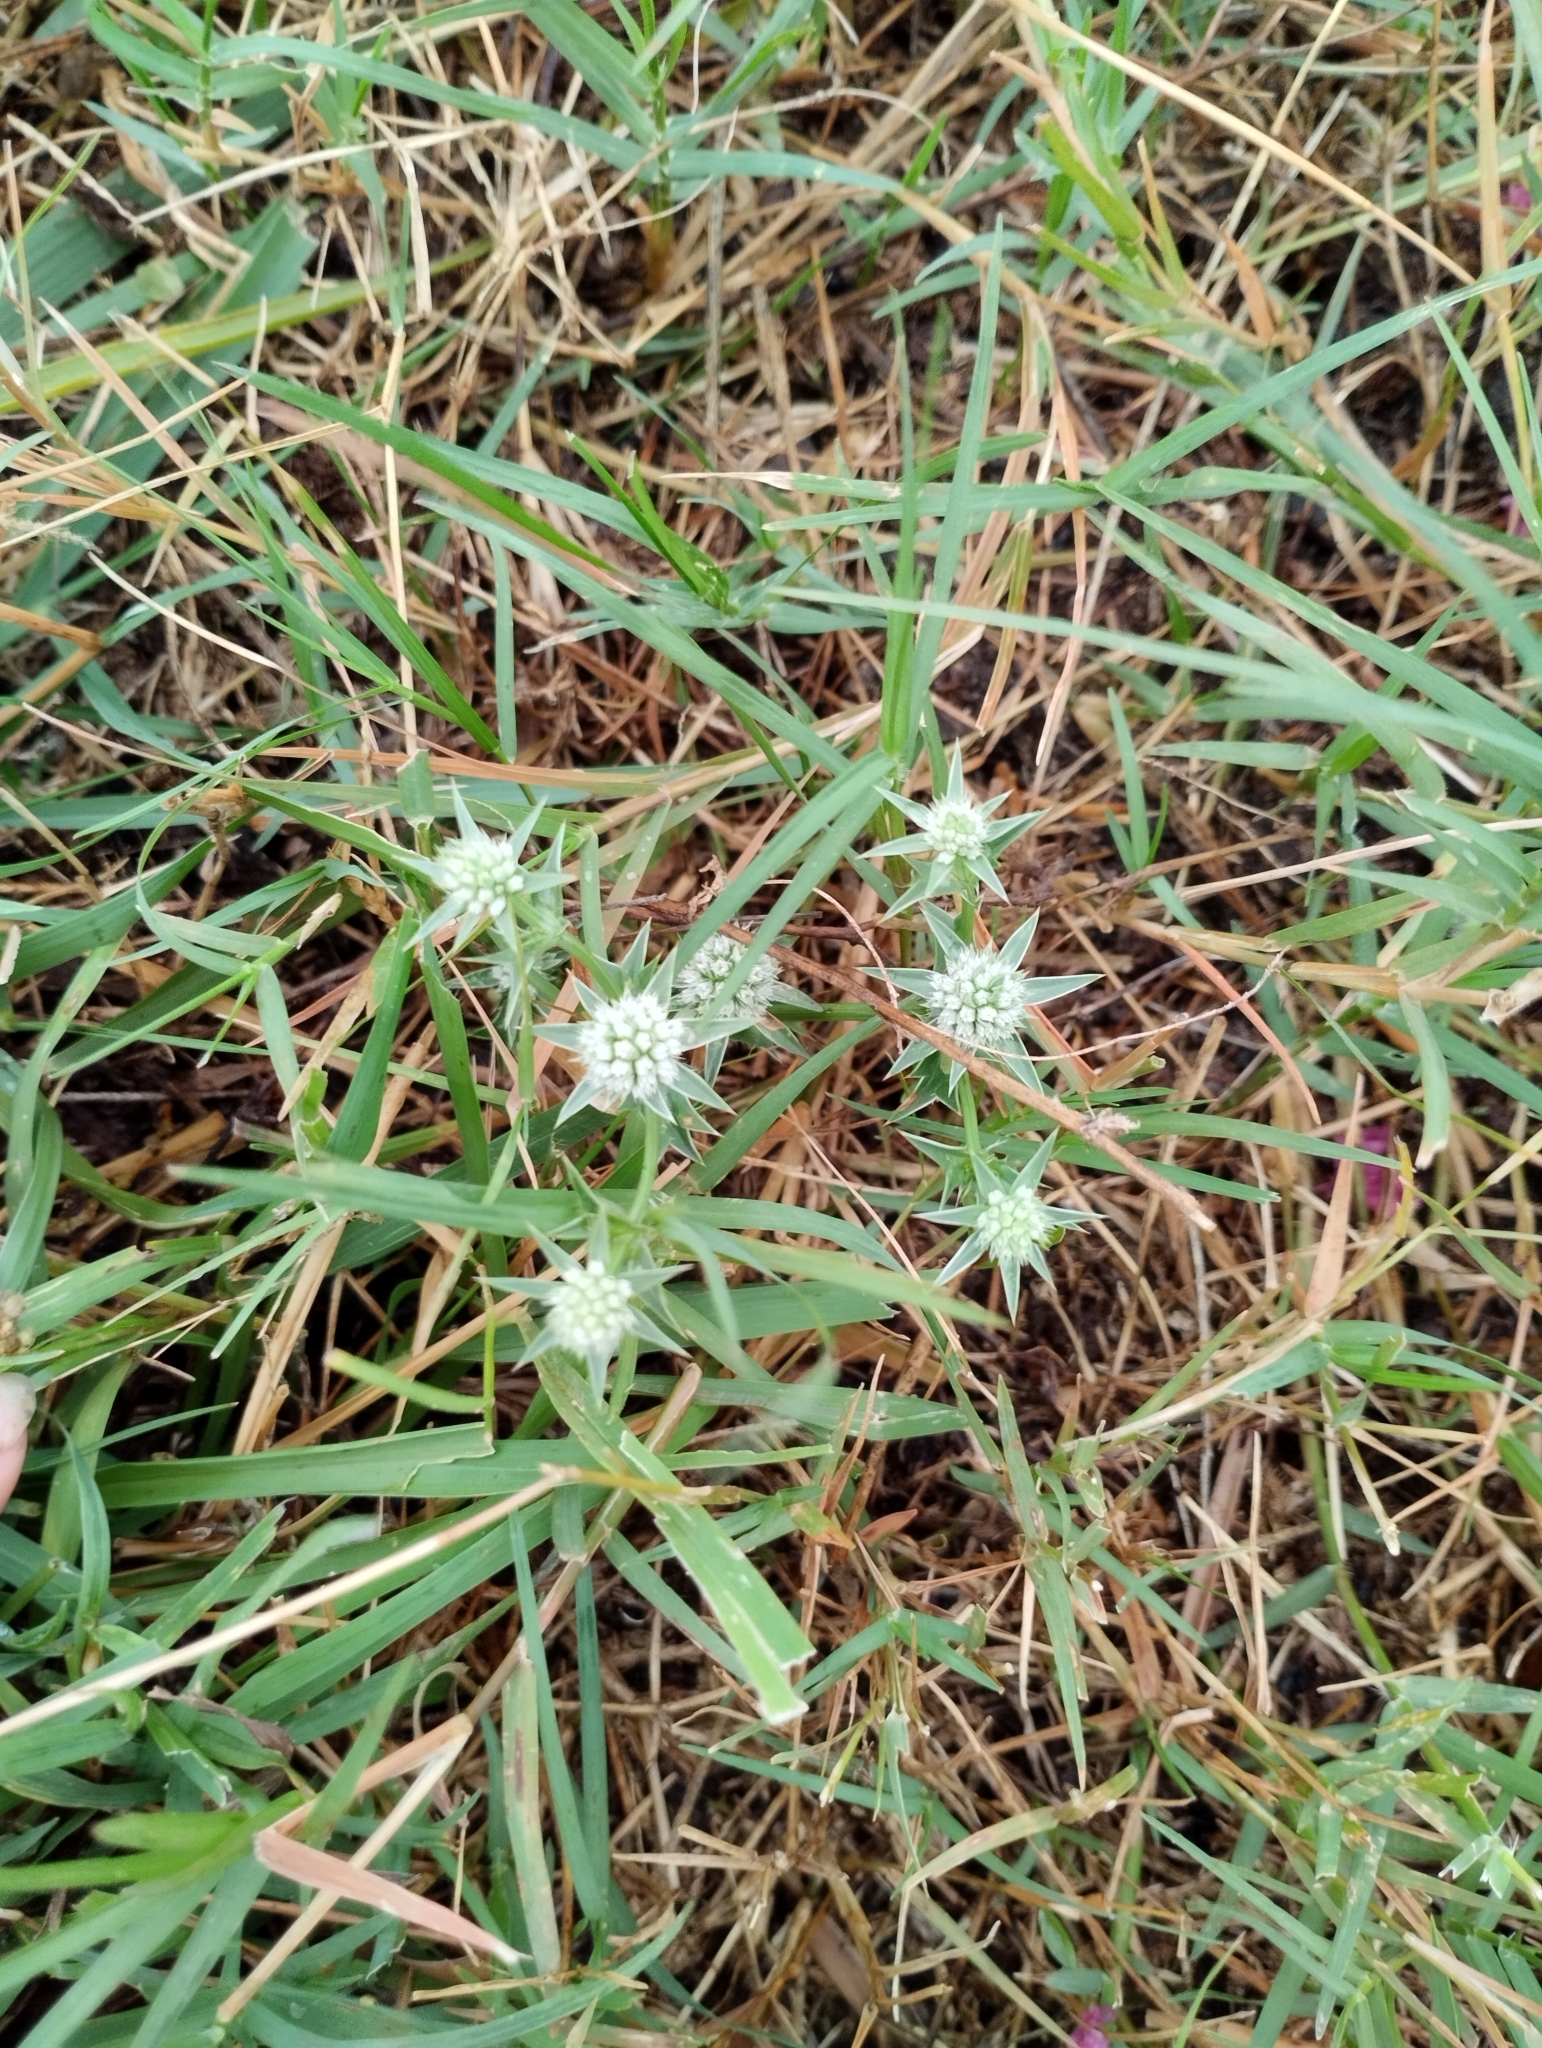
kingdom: Plantae
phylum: Tracheophyta
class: Magnoliopsida
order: Apiales
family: Apiaceae
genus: Eryngium
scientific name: Eryngium nudicaule
